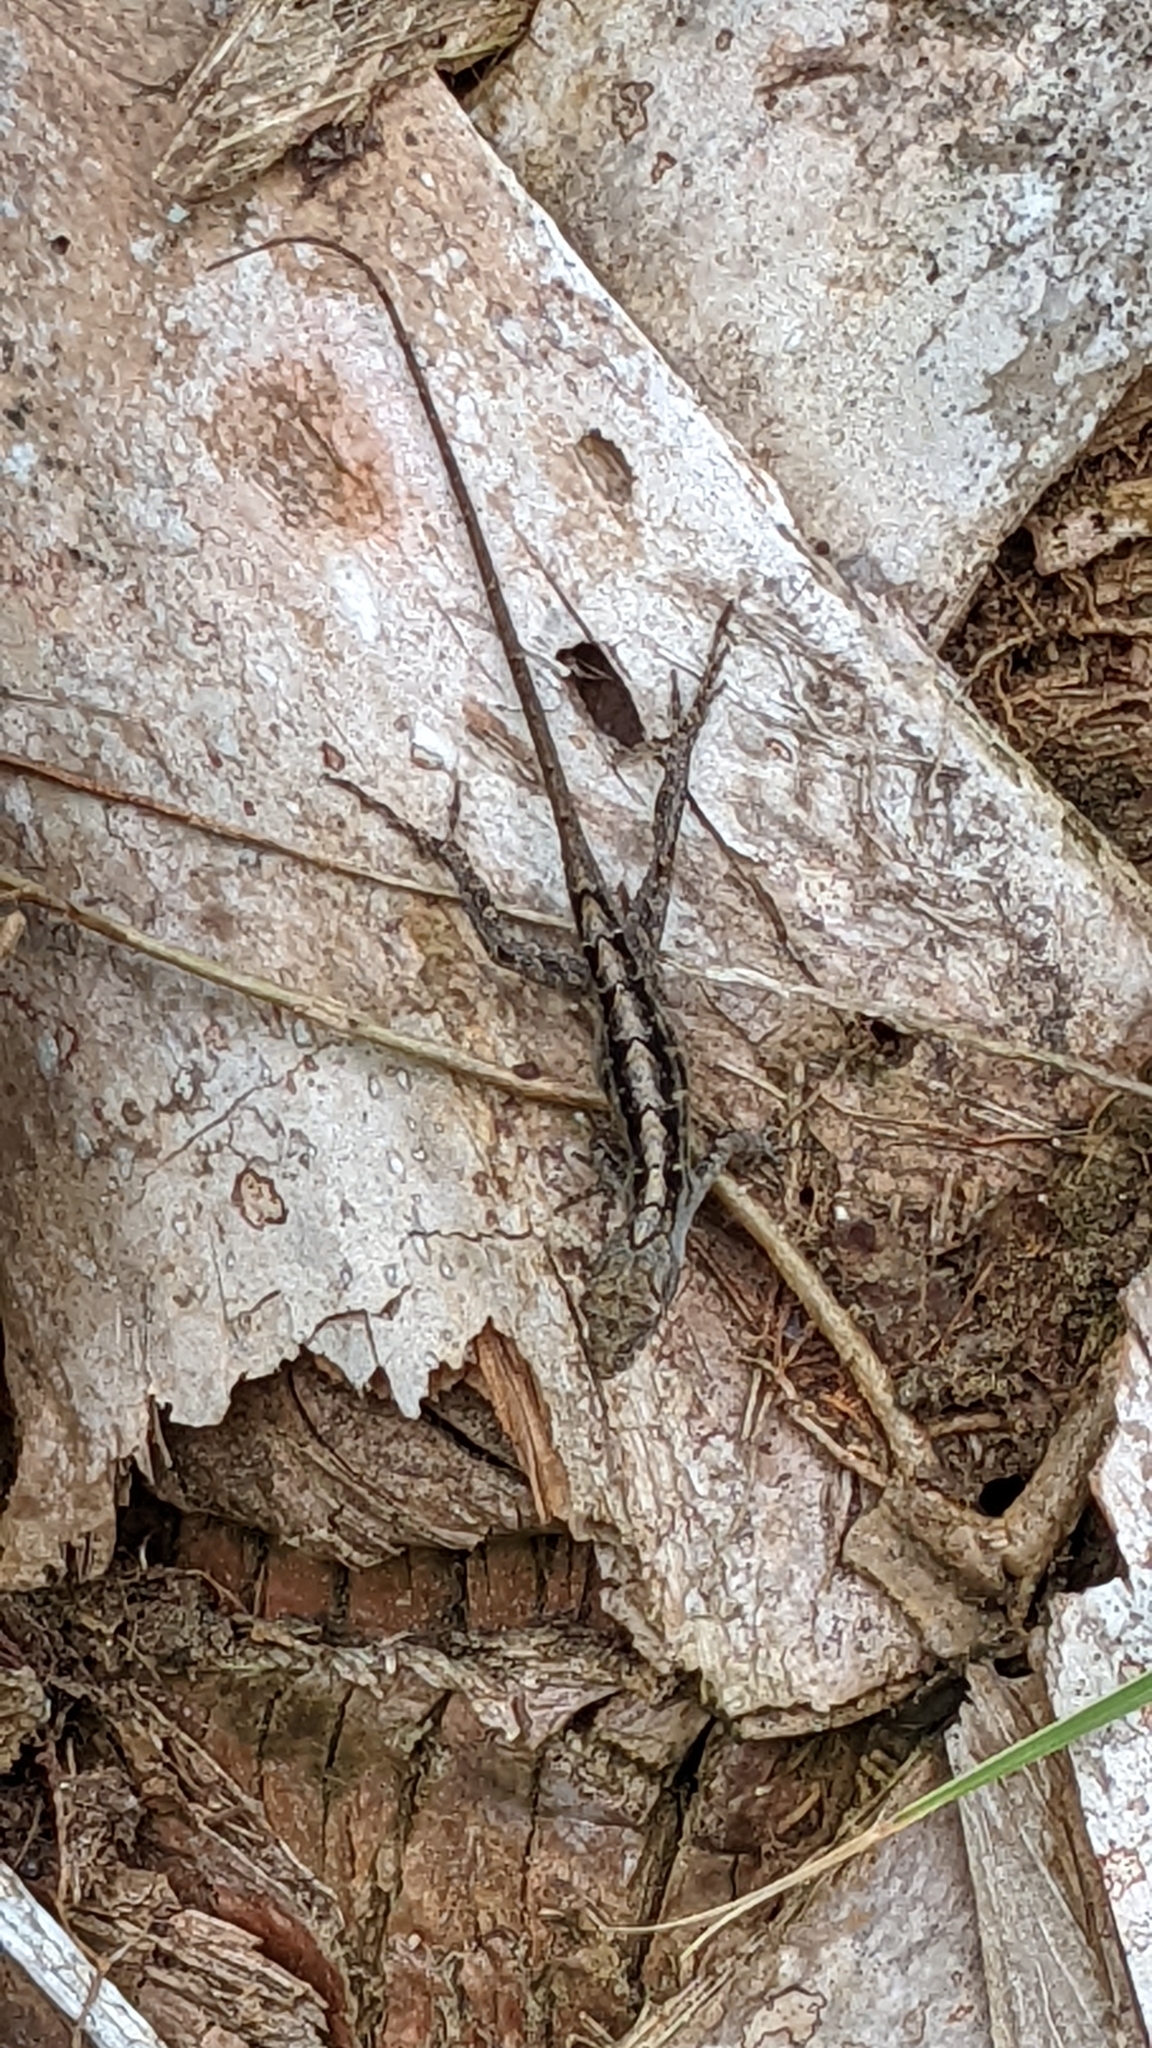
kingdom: Animalia
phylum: Chordata
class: Squamata
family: Dactyloidae
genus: Anolis
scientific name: Anolis sagrei
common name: Brown anole
